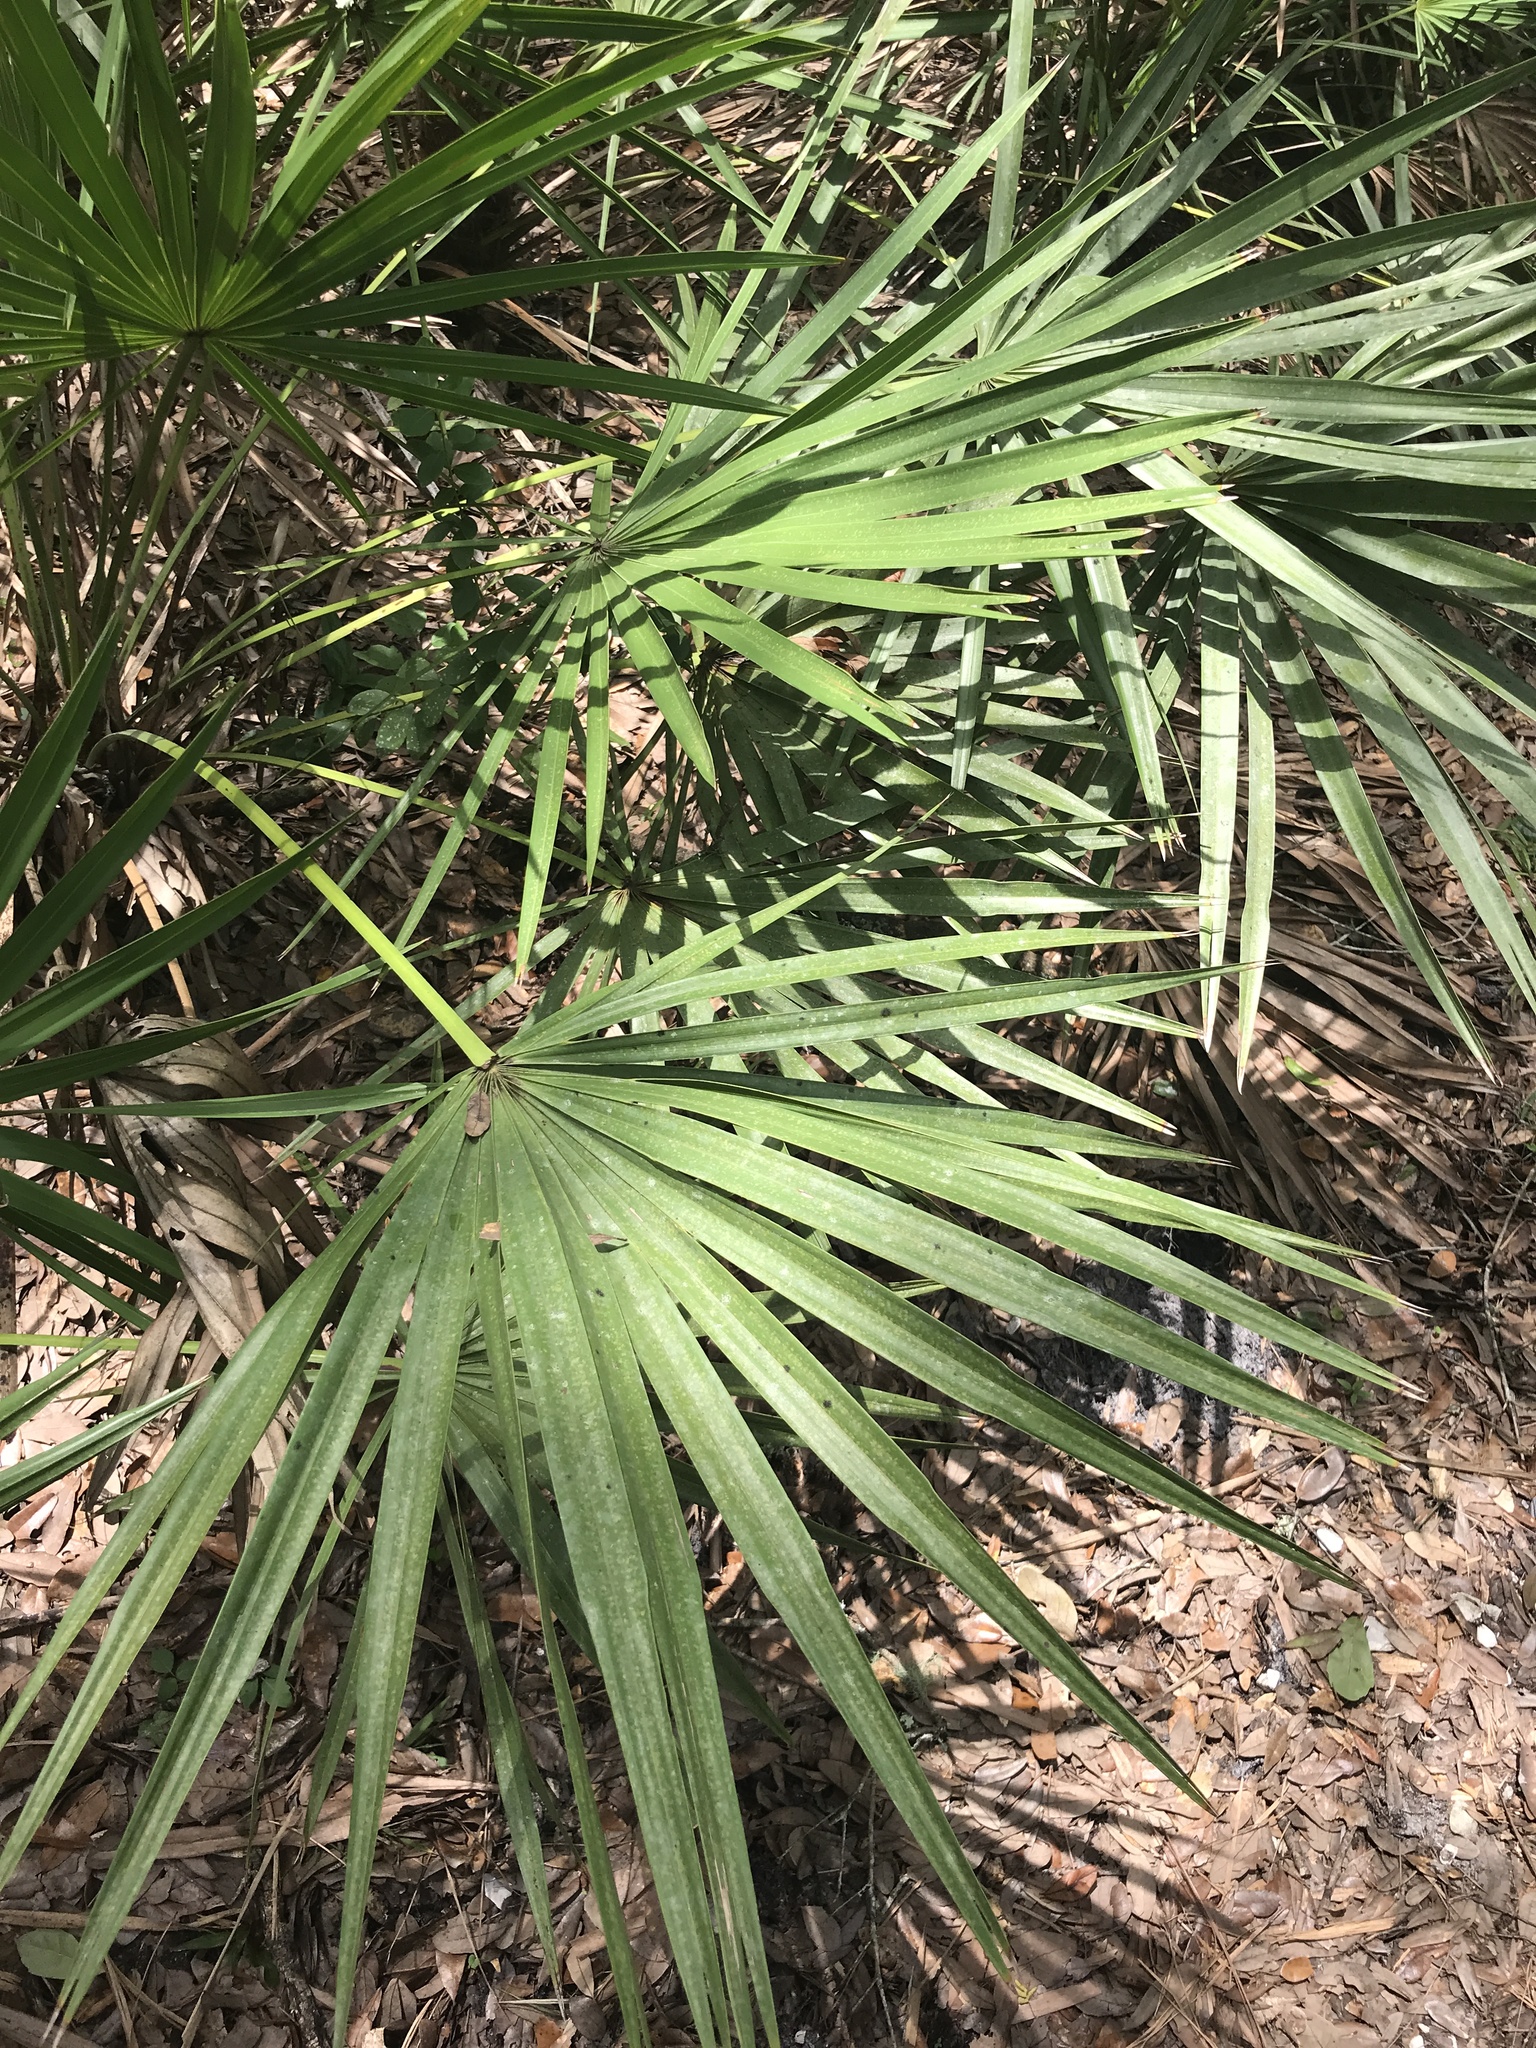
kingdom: Plantae
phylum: Tracheophyta
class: Liliopsida
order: Arecales
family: Arecaceae
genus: Serenoa
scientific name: Serenoa repens
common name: Saw-palmetto
